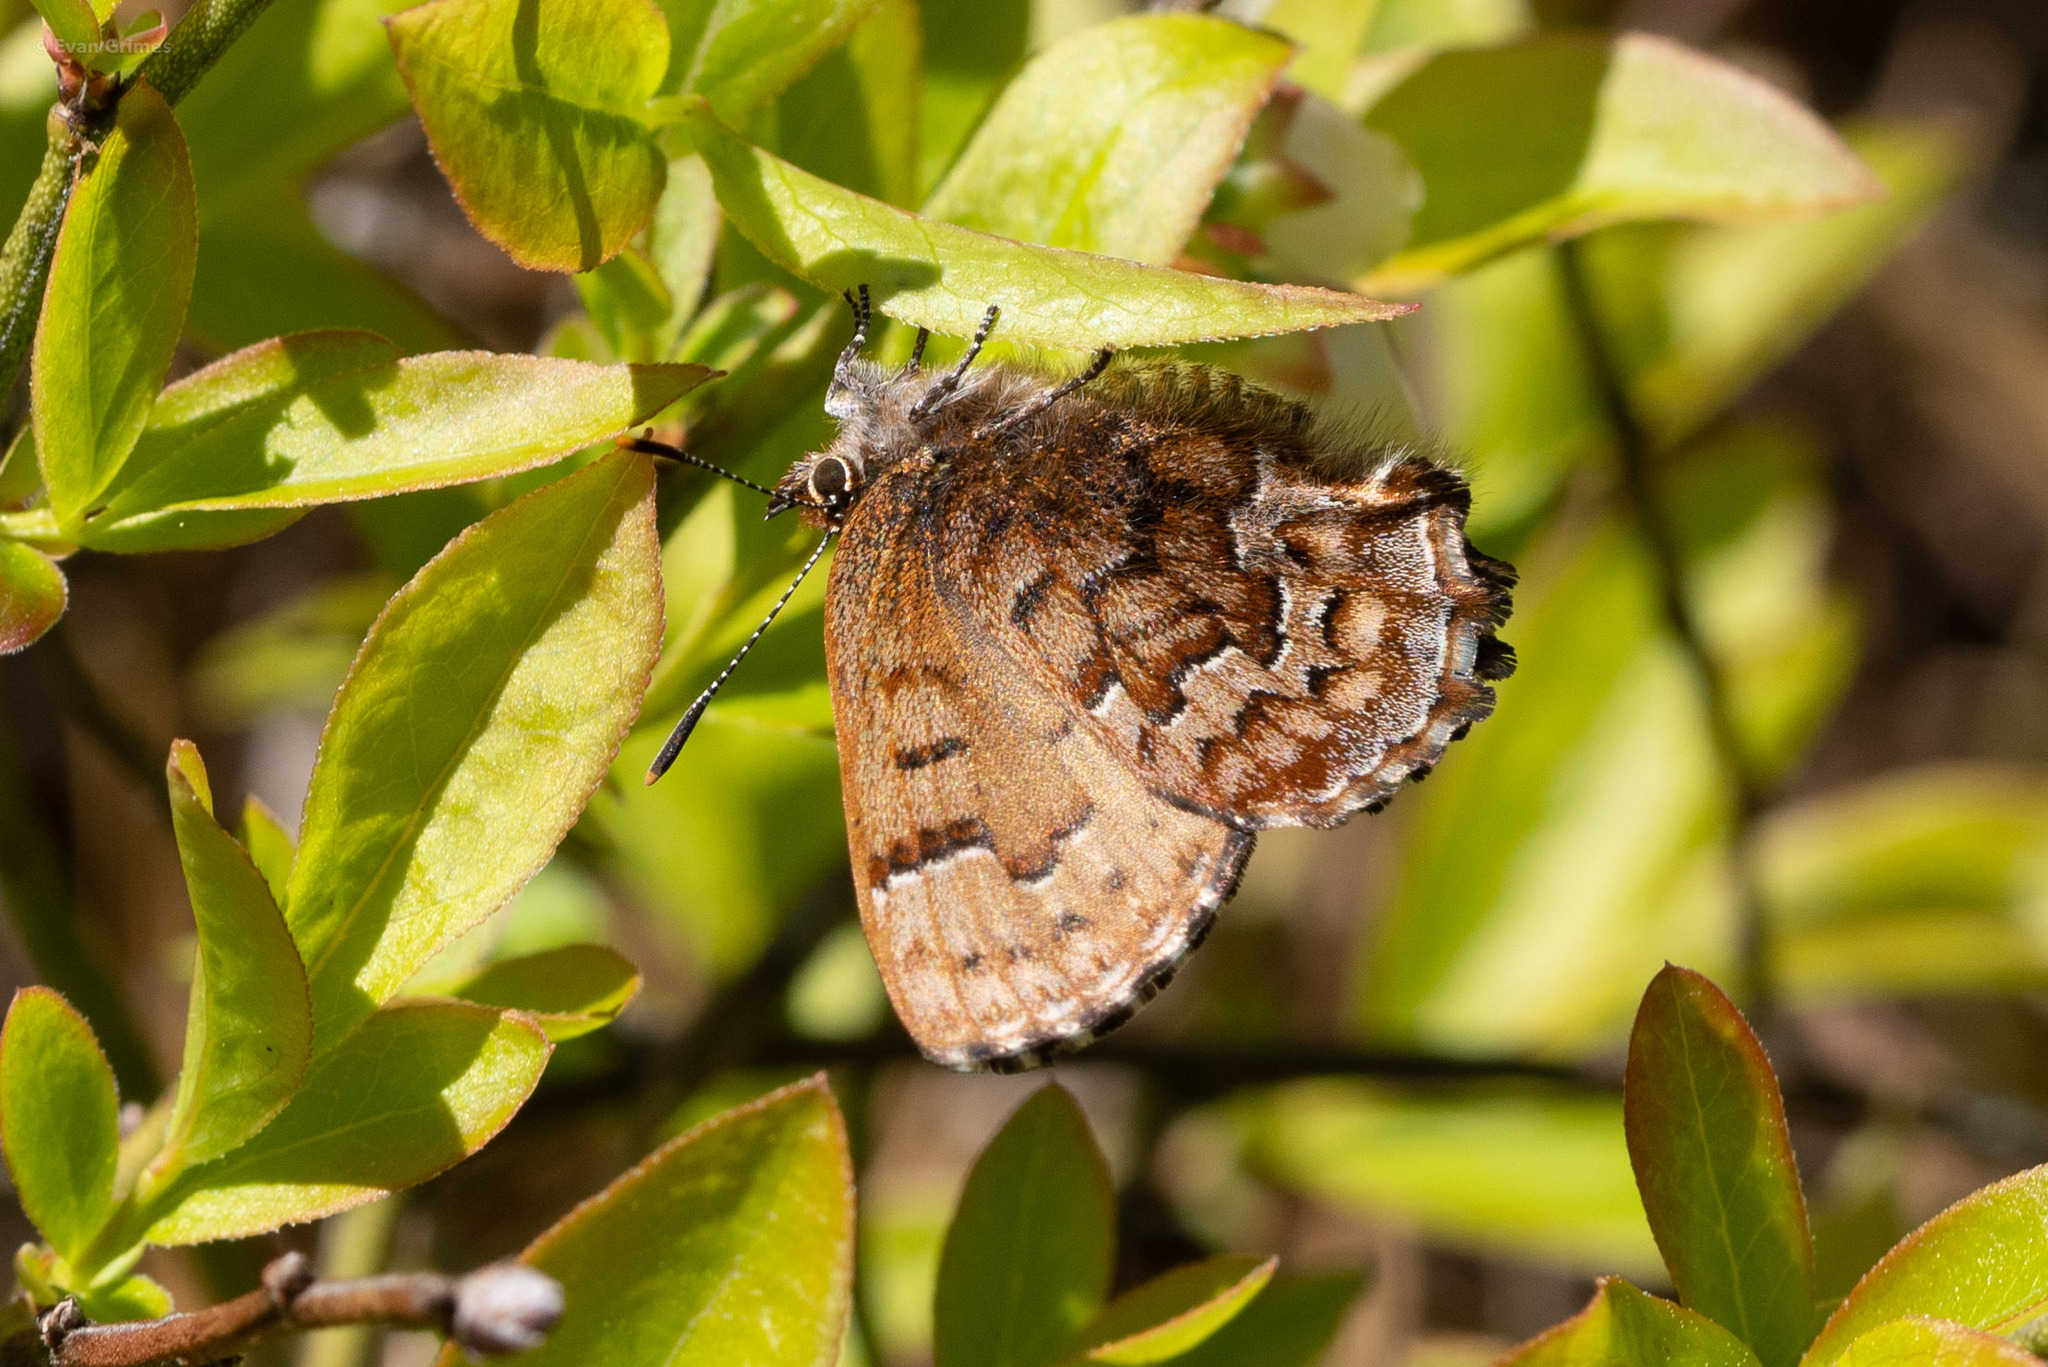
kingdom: Animalia
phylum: Arthropoda
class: Insecta
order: Lepidoptera
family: Lycaenidae
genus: Incisalia
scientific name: Incisalia niphon
